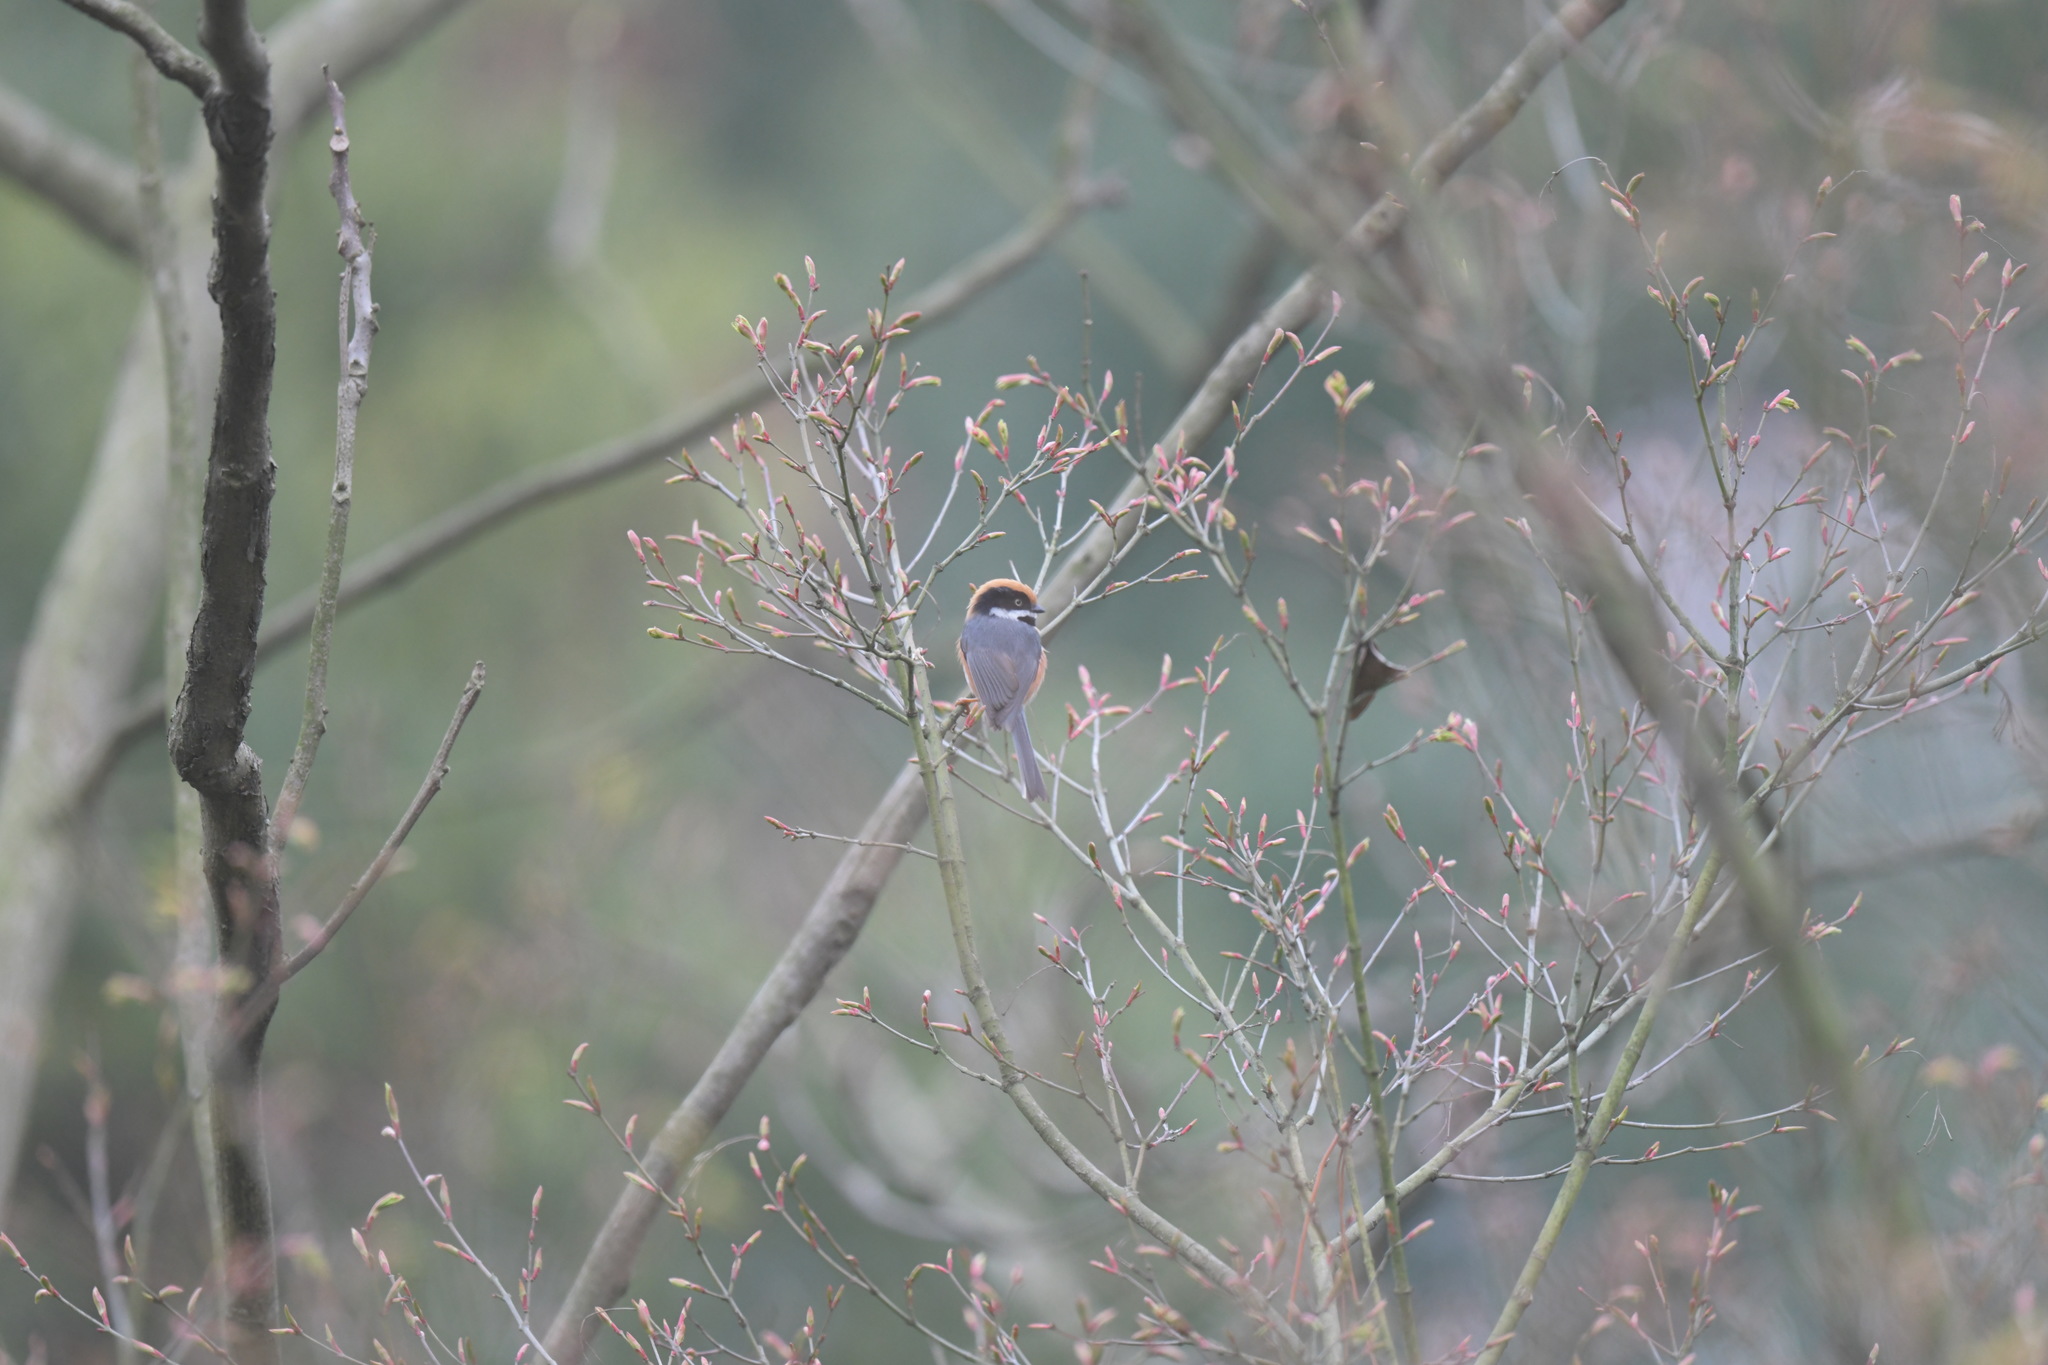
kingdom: Animalia
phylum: Chordata
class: Aves
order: Passeriformes
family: Aegithalidae
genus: Aegithalos
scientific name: Aegithalos concinnus
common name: Black-throated bushtit
